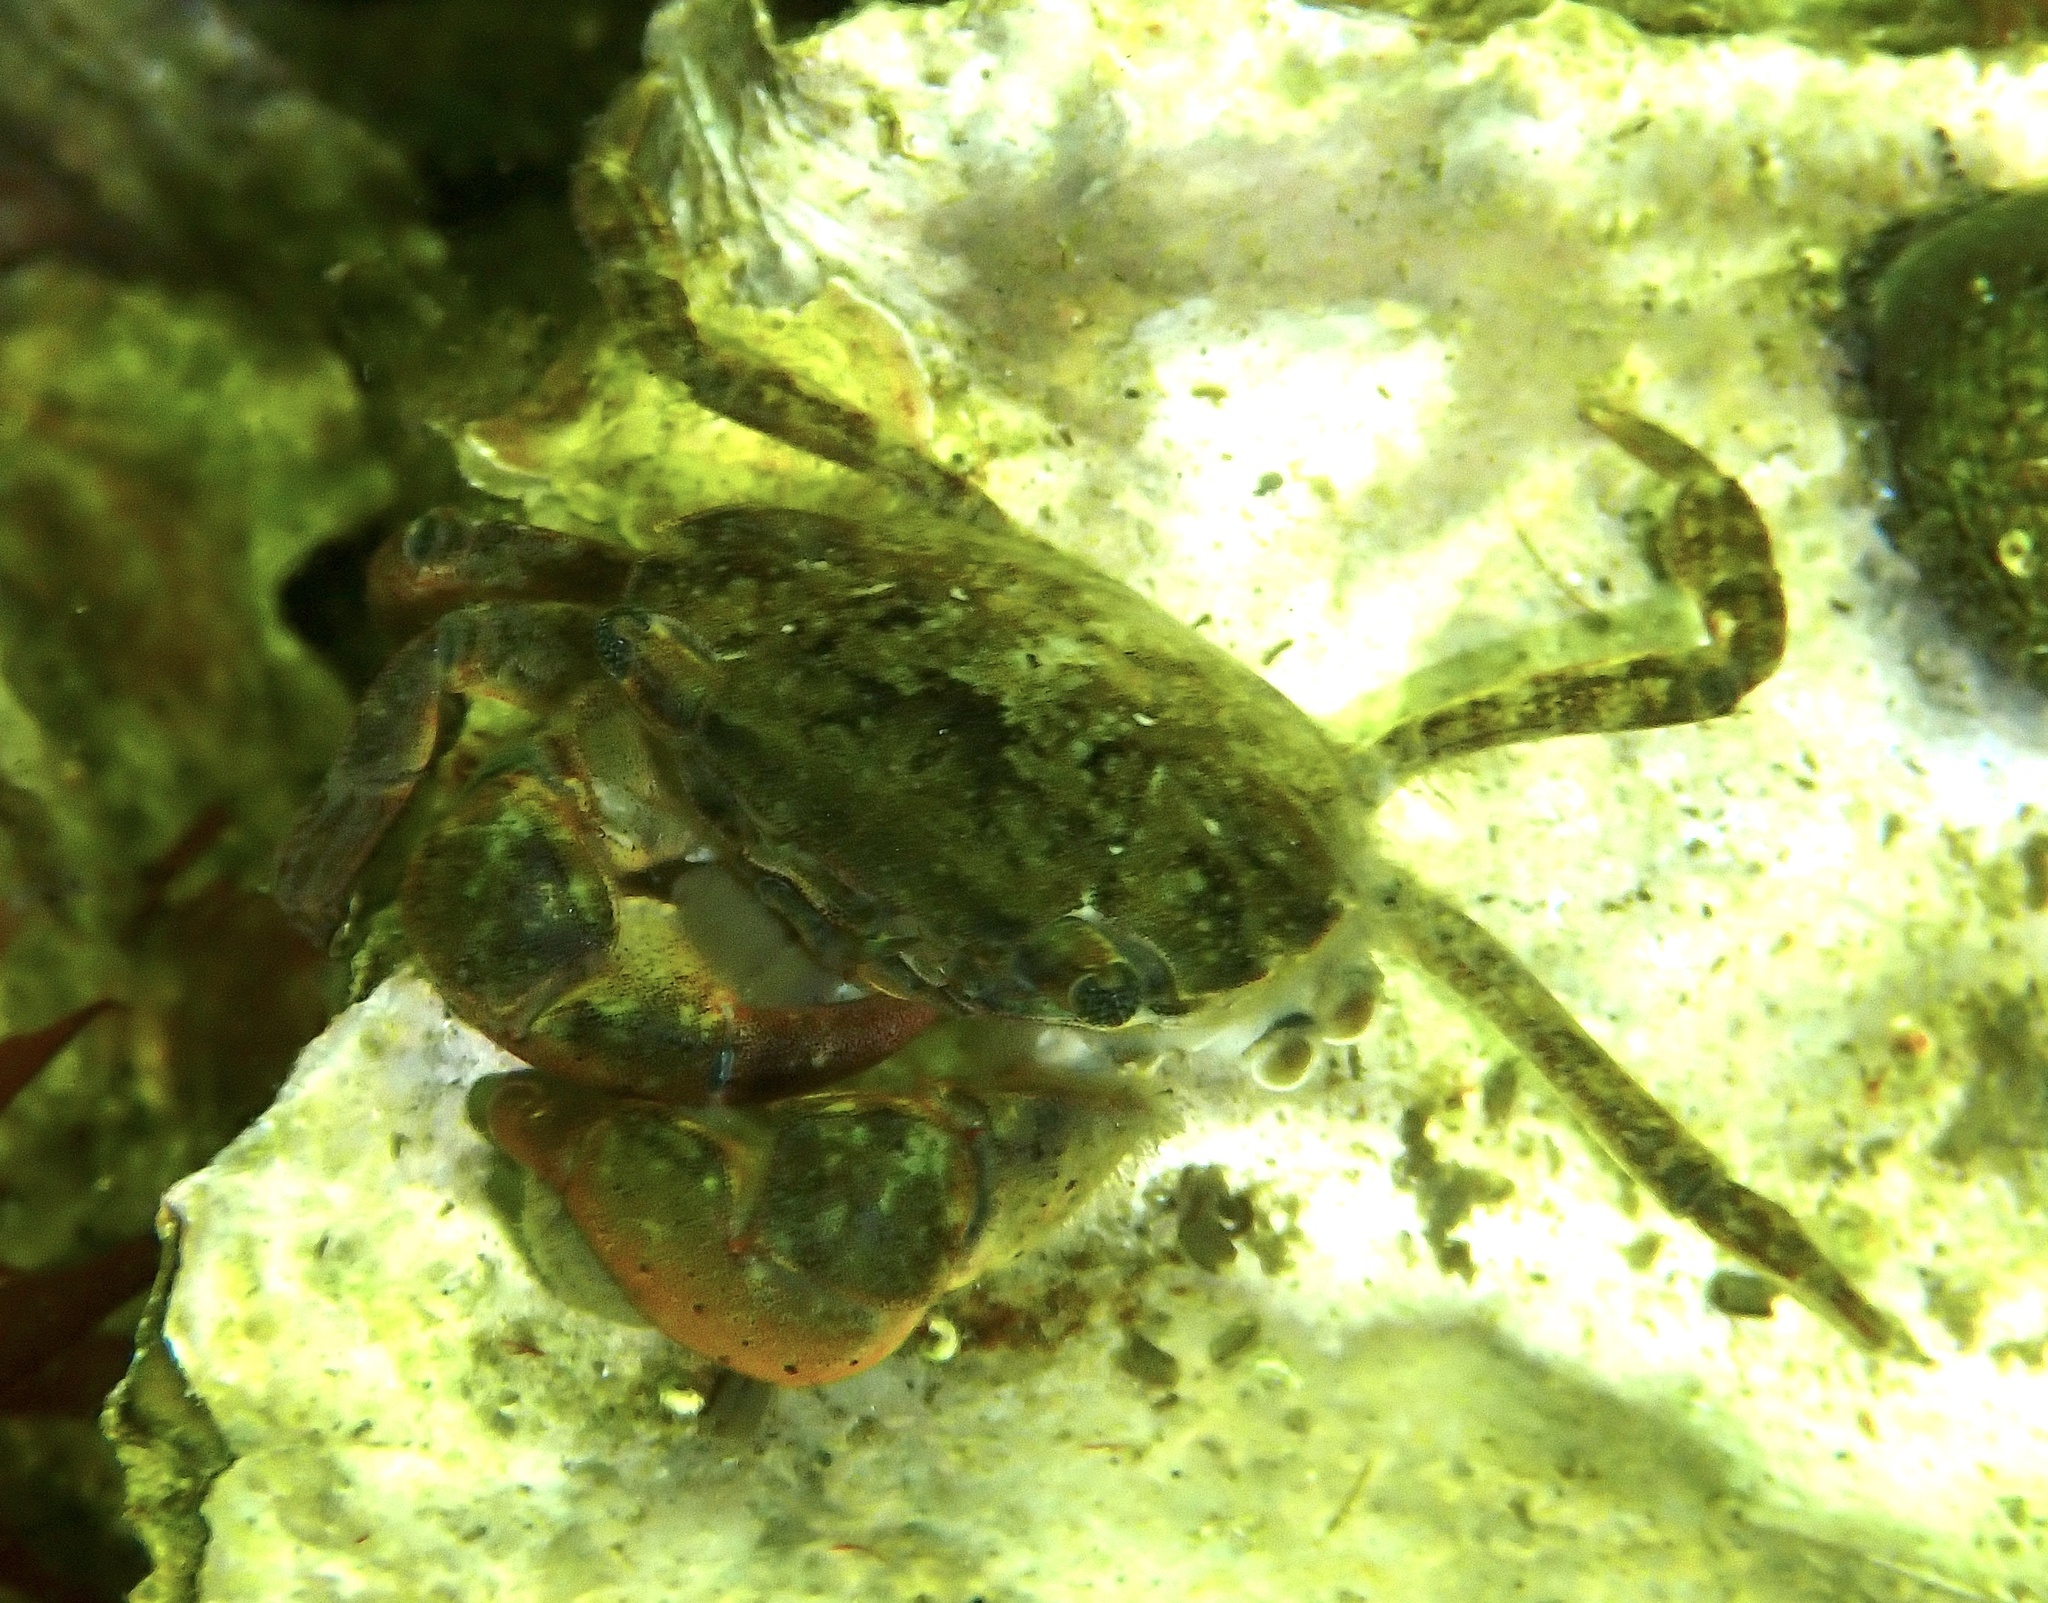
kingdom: Animalia
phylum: Arthropoda
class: Malacostraca
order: Decapoda
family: Varunidae
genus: Hemigrapsus
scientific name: Hemigrapsus takanoi
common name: Asian brush crab
